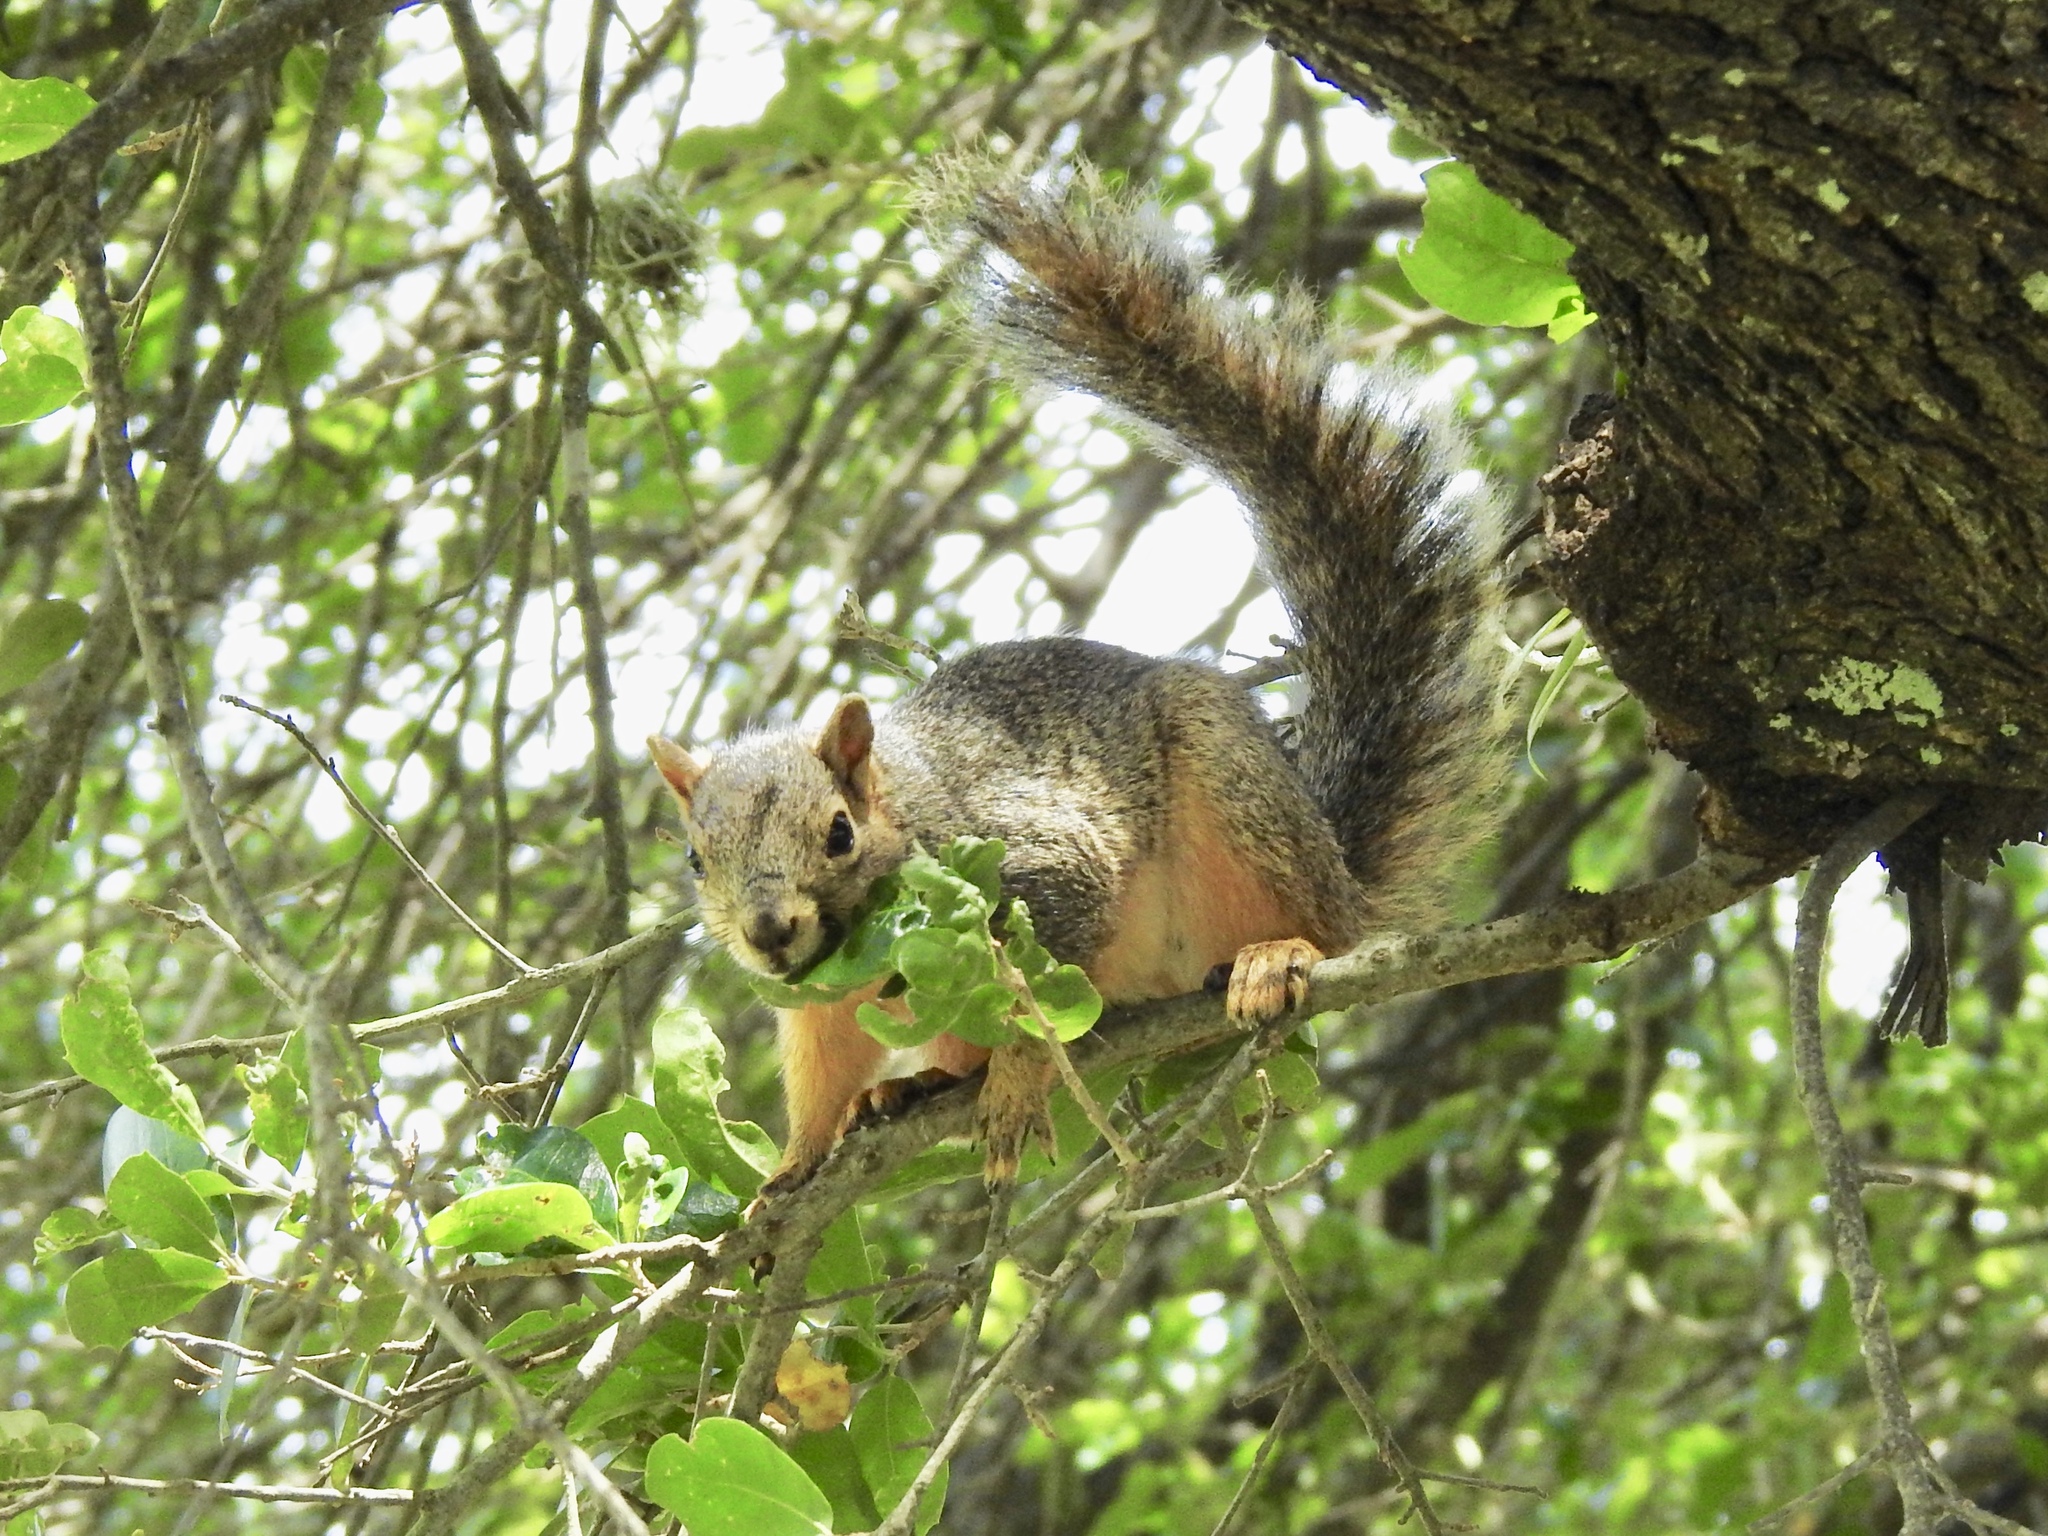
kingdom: Animalia
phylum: Chordata
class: Mammalia
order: Rodentia
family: Sciuridae
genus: Sciurus
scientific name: Sciurus niger
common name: Fox squirrel
